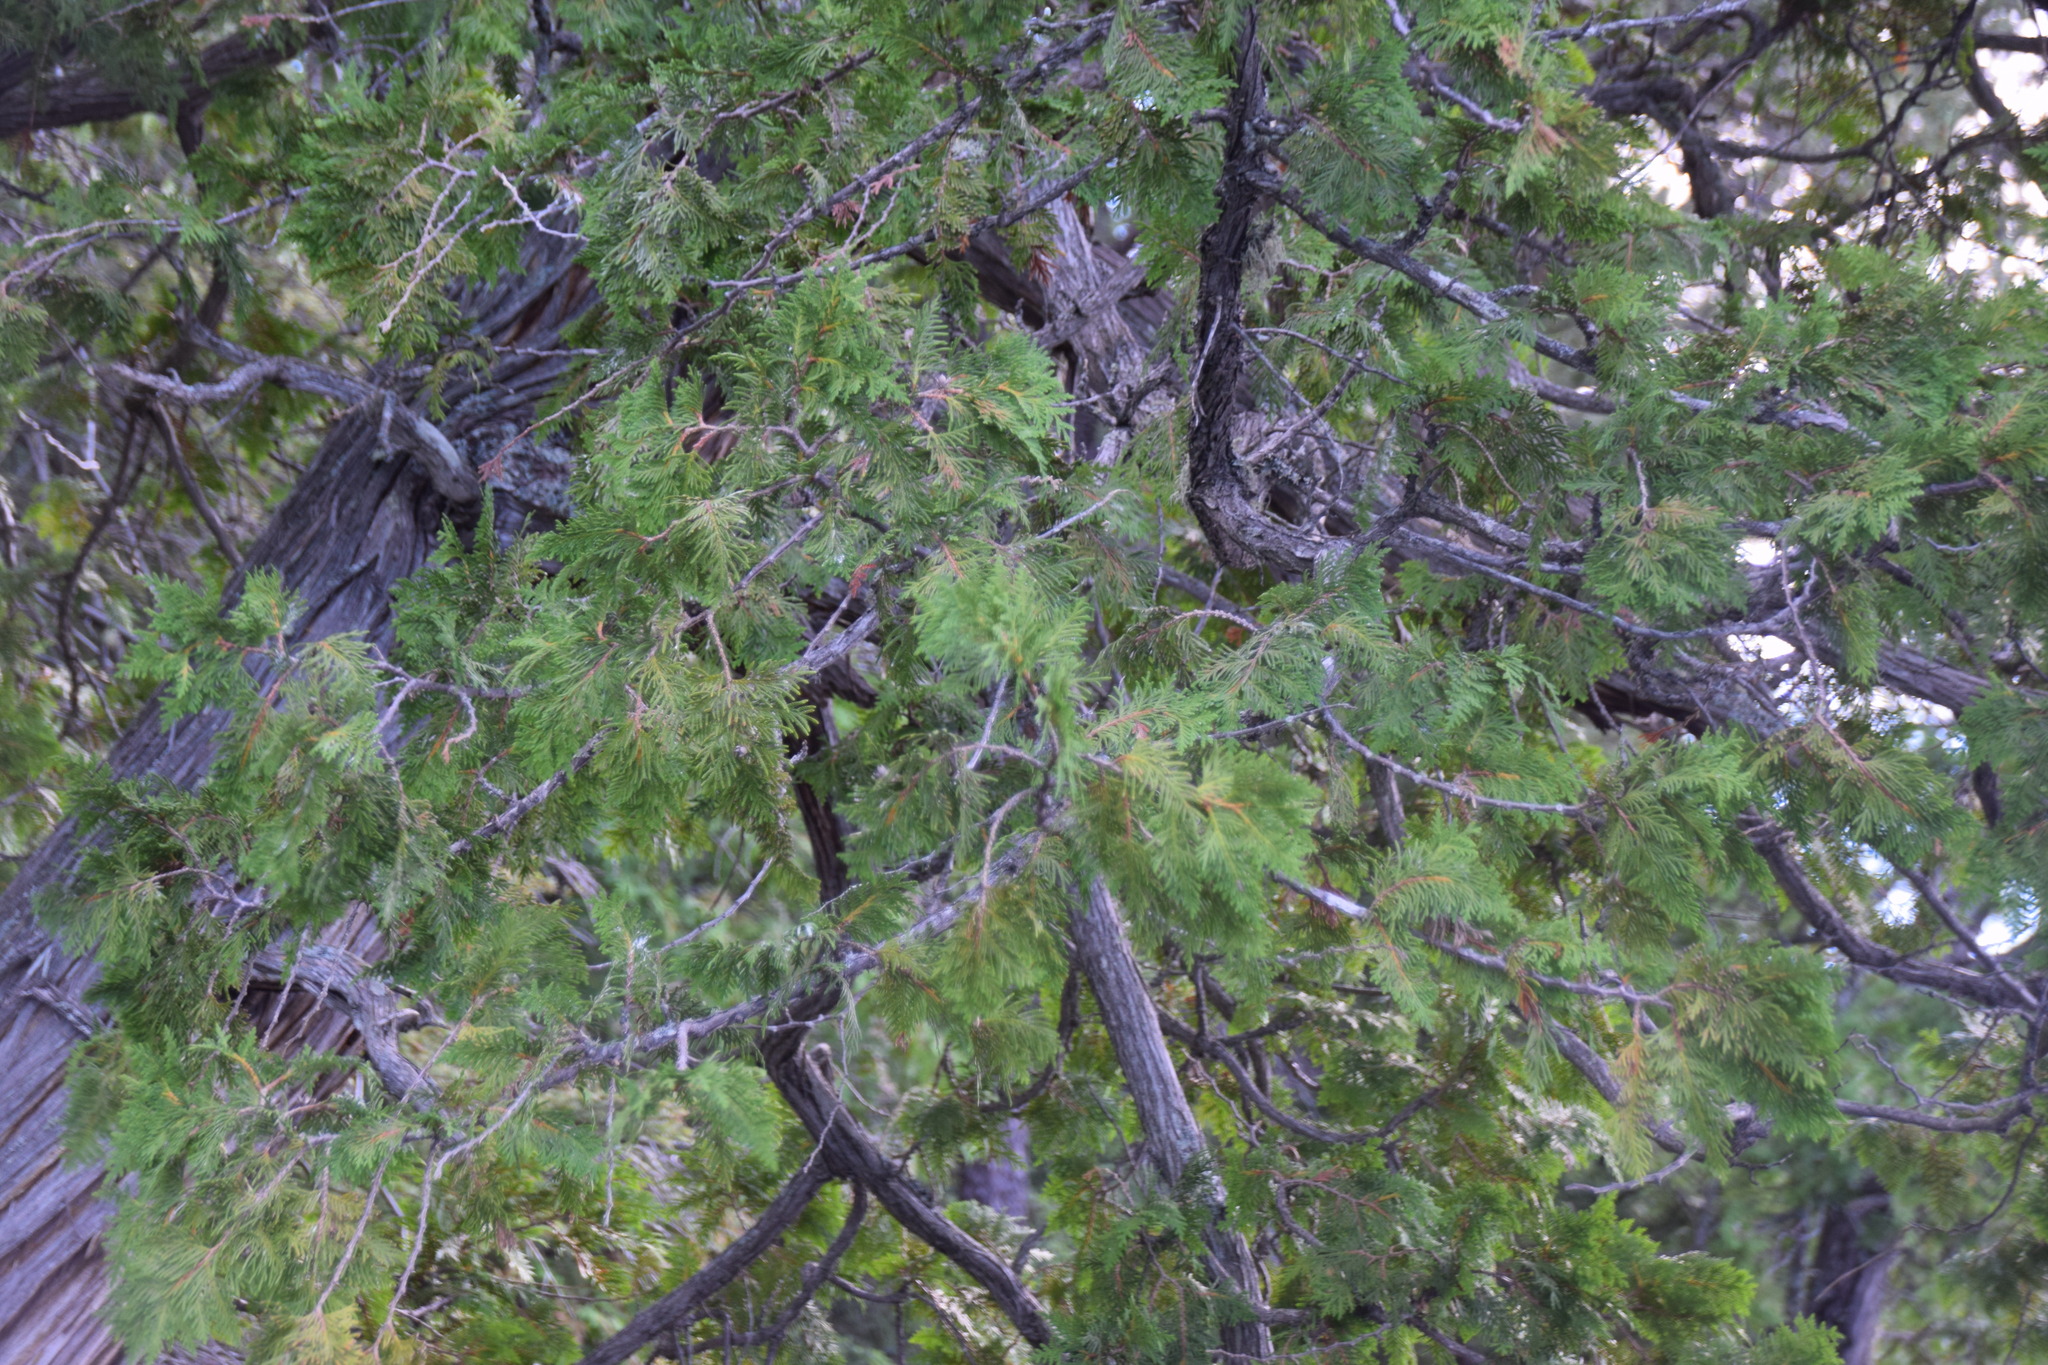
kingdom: Plantae
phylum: Tracheophyta
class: Pinopsida
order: Pinales
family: Cupressaceae
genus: Thuja
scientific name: Thuja occidentalis
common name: Northern white-cedar
